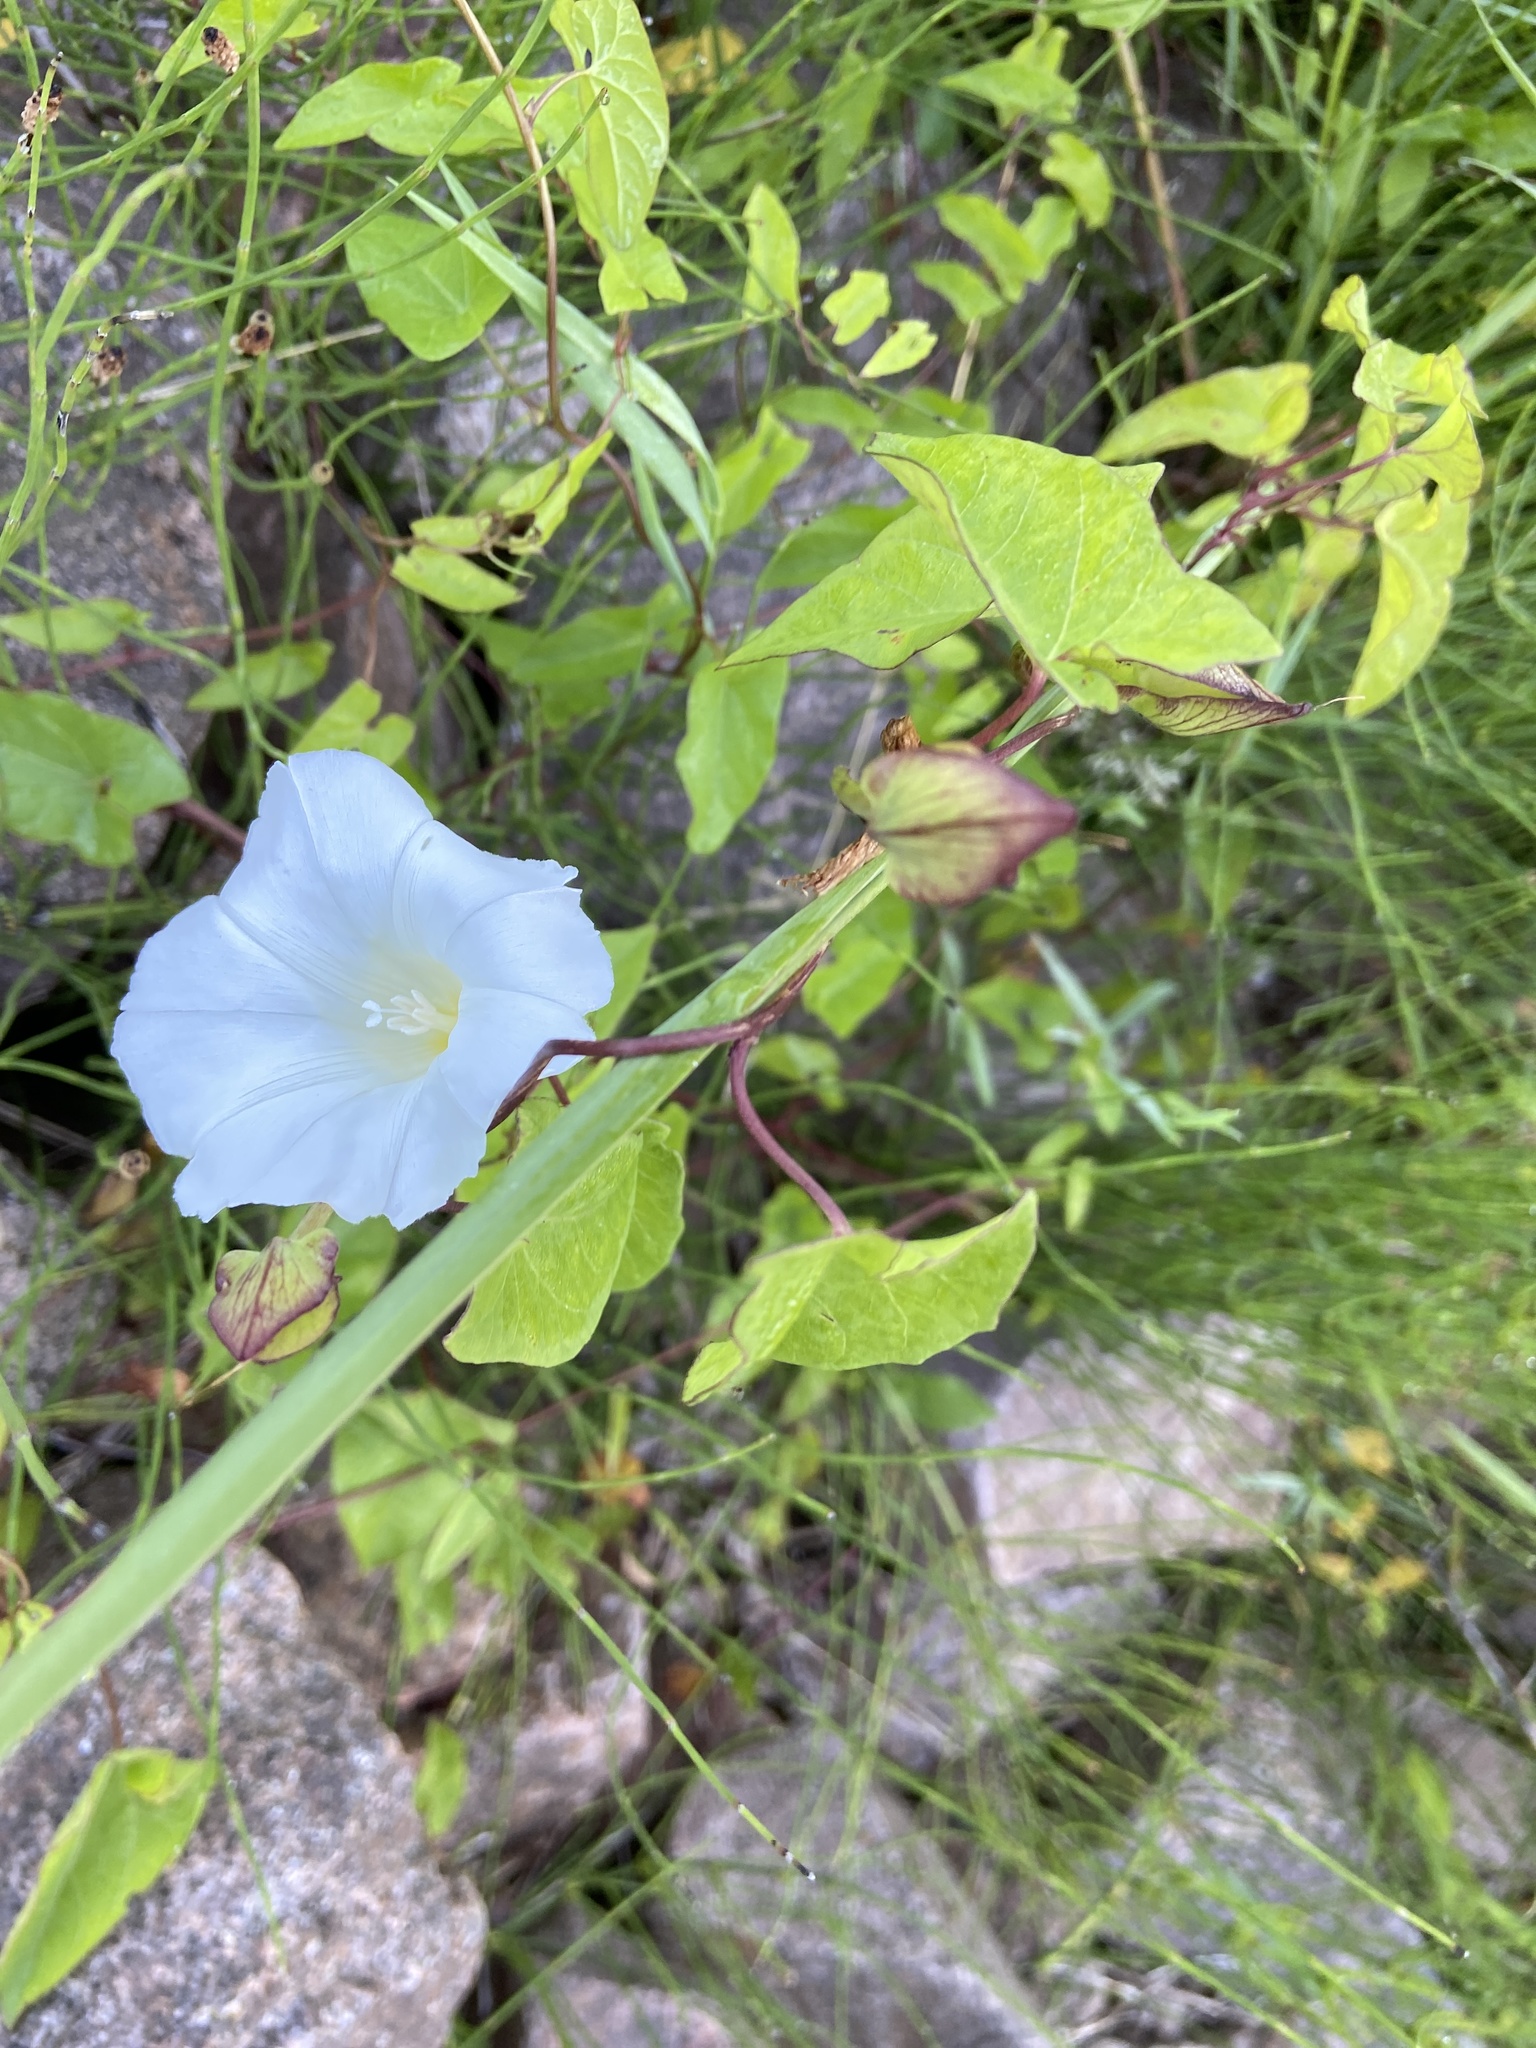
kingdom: Plantae
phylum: Tracheophyta
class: Magnoliopsida
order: Solanales
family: Convolvulaceae
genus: Calystegia
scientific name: Calystegia sepium
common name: Hedge bindweed
